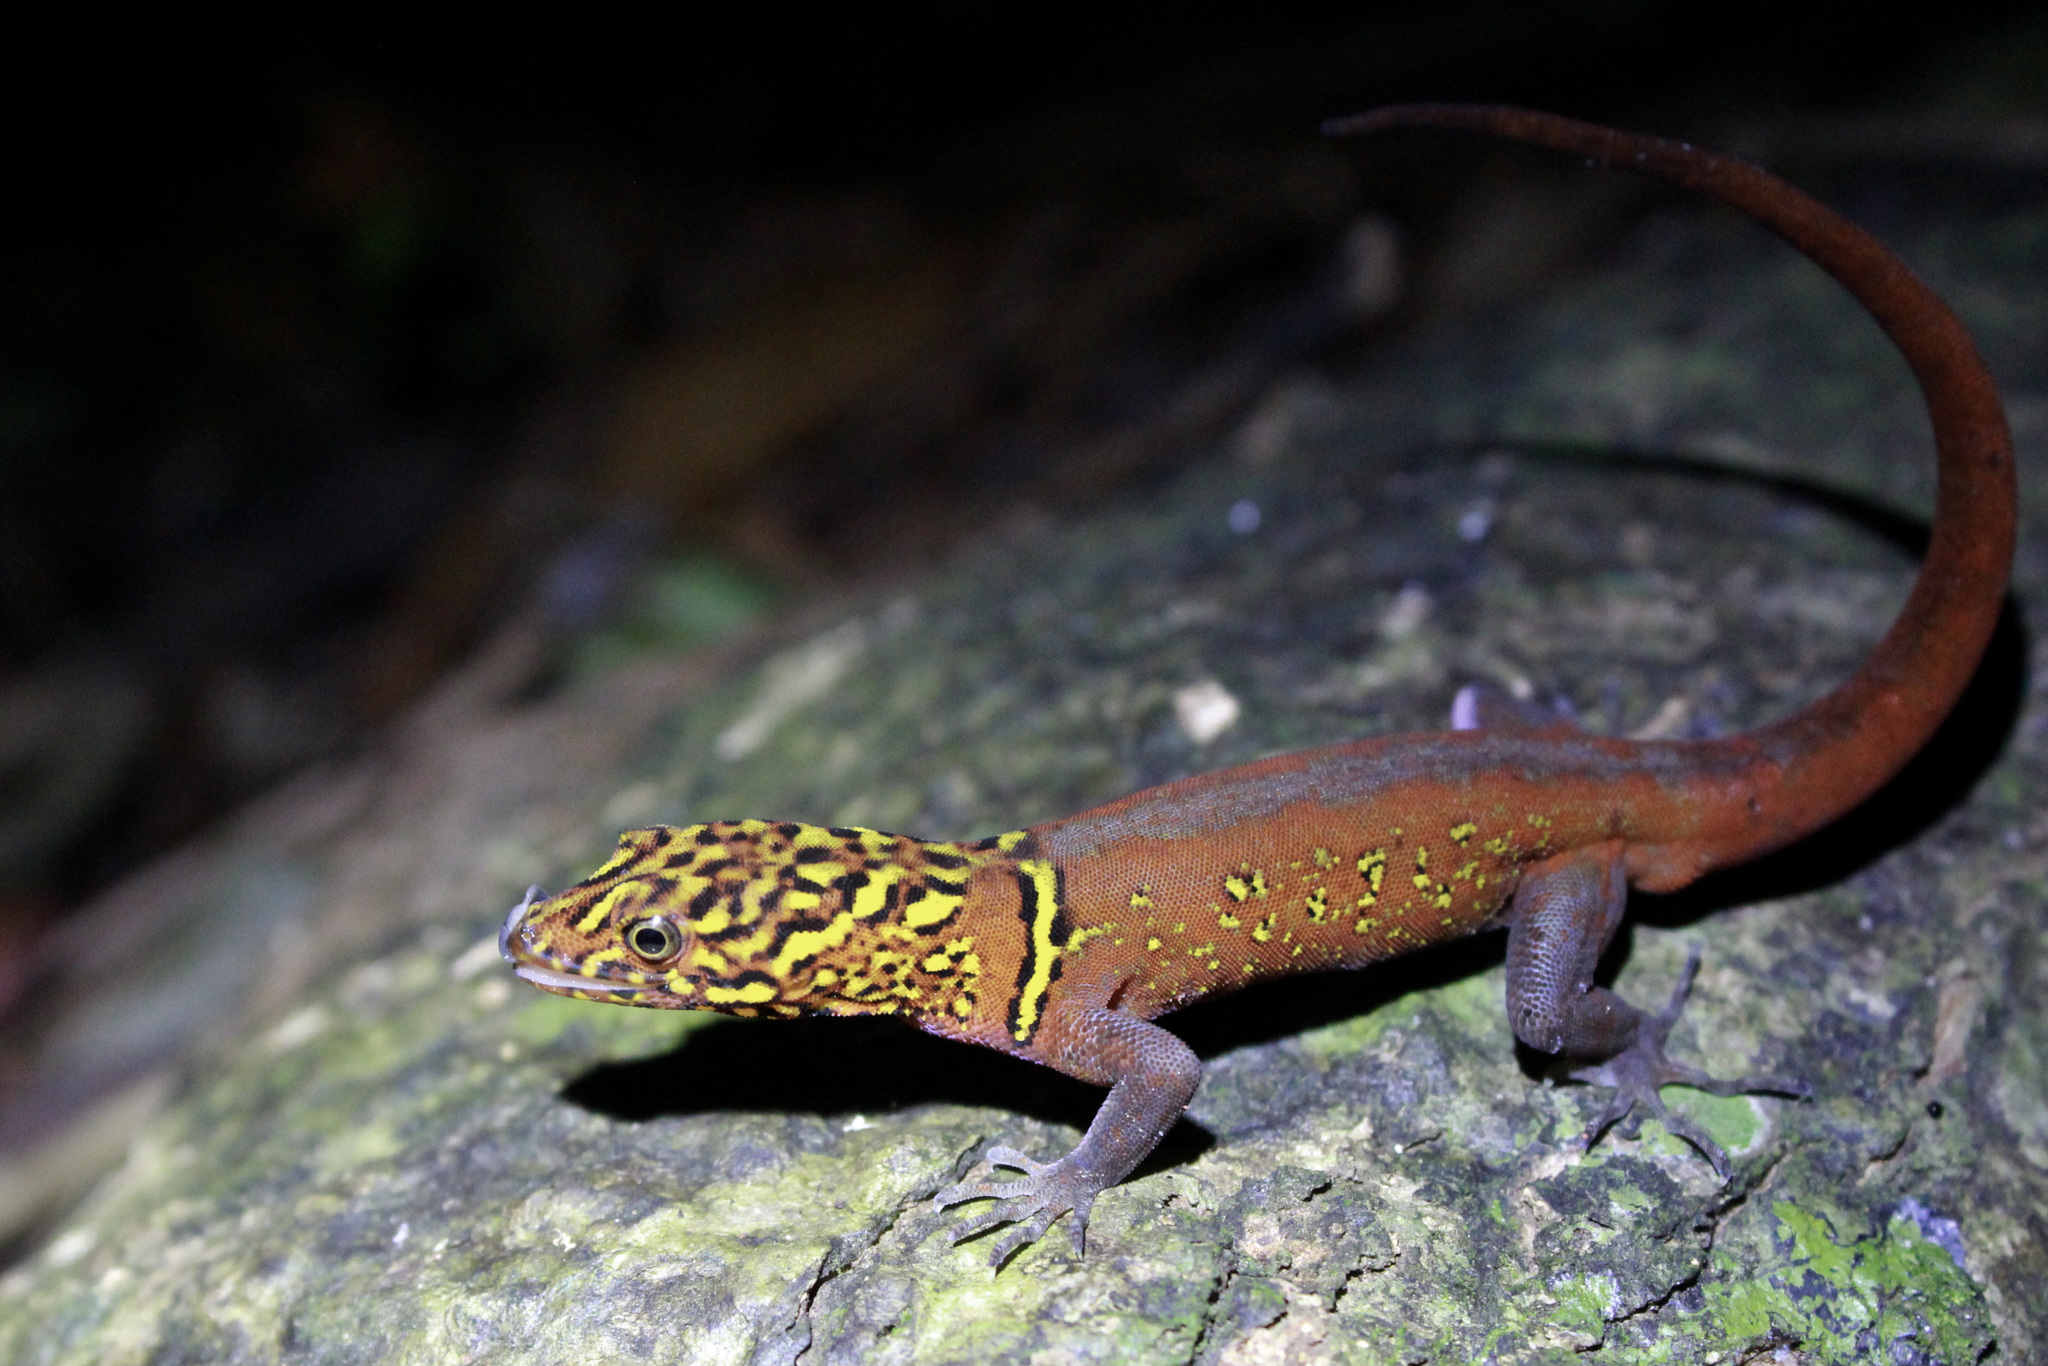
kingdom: Animalia
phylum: Chordata
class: Squamata
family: Sphaerodactylidae
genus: Gonatodes
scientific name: Gonatodes ceciliae
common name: Brilliant south american gecko
